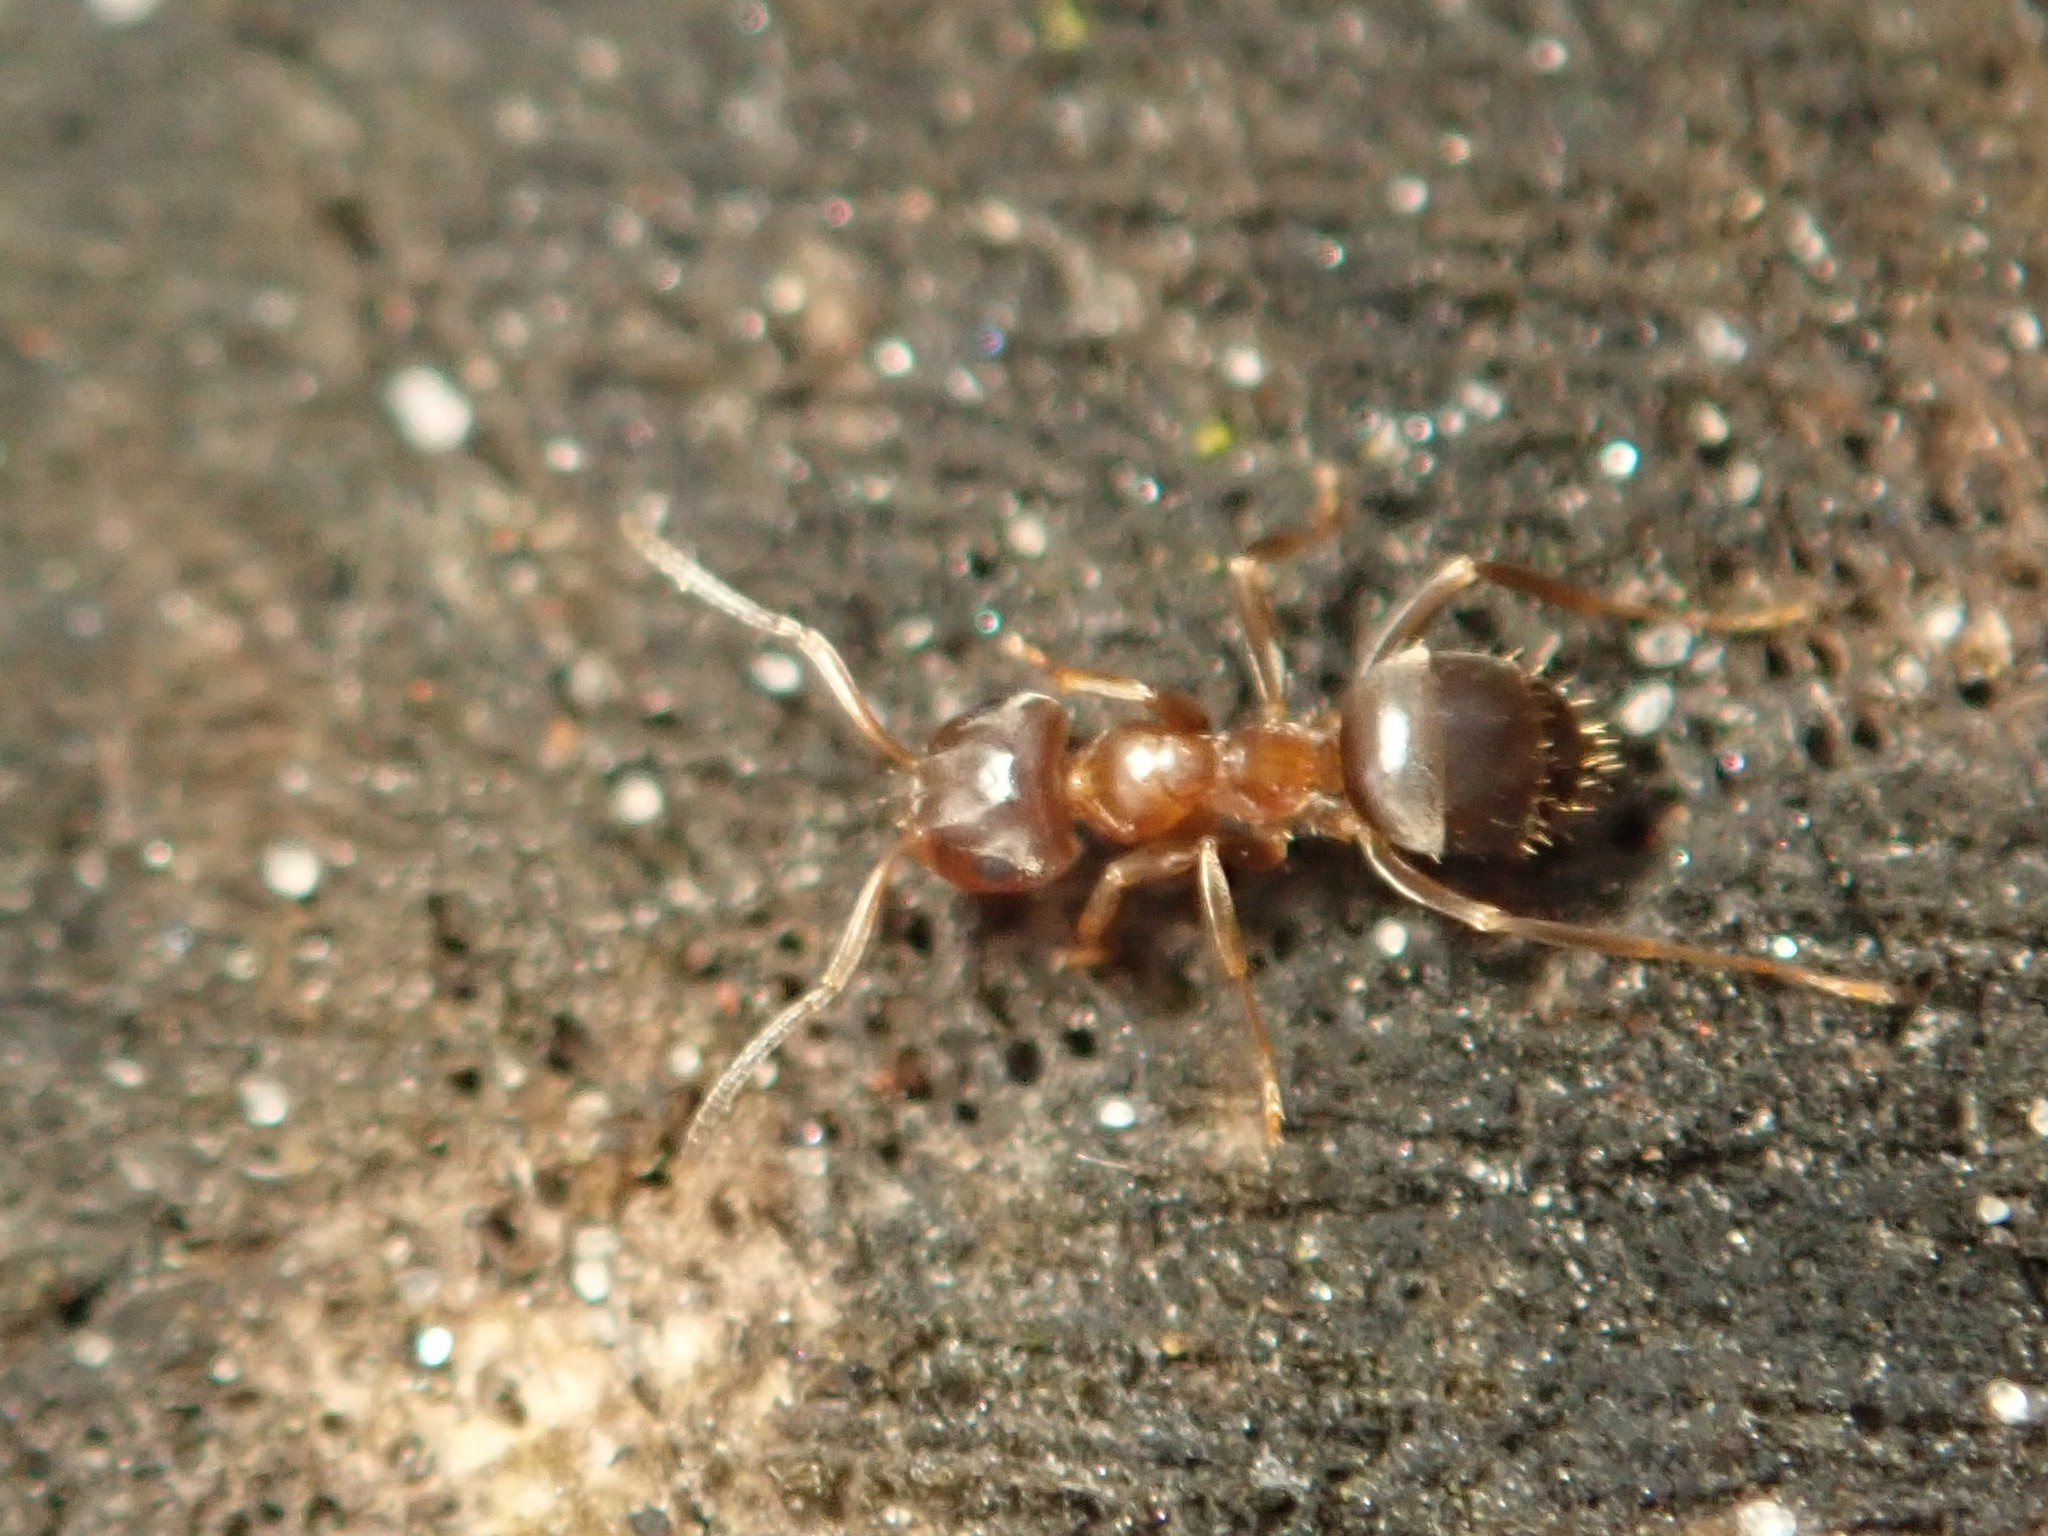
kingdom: Animalia
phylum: Arthropoda
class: Insecta
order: Hymenoptera
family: Formicidae
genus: Lasius
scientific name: Lasius brunneus
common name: Brown ant
